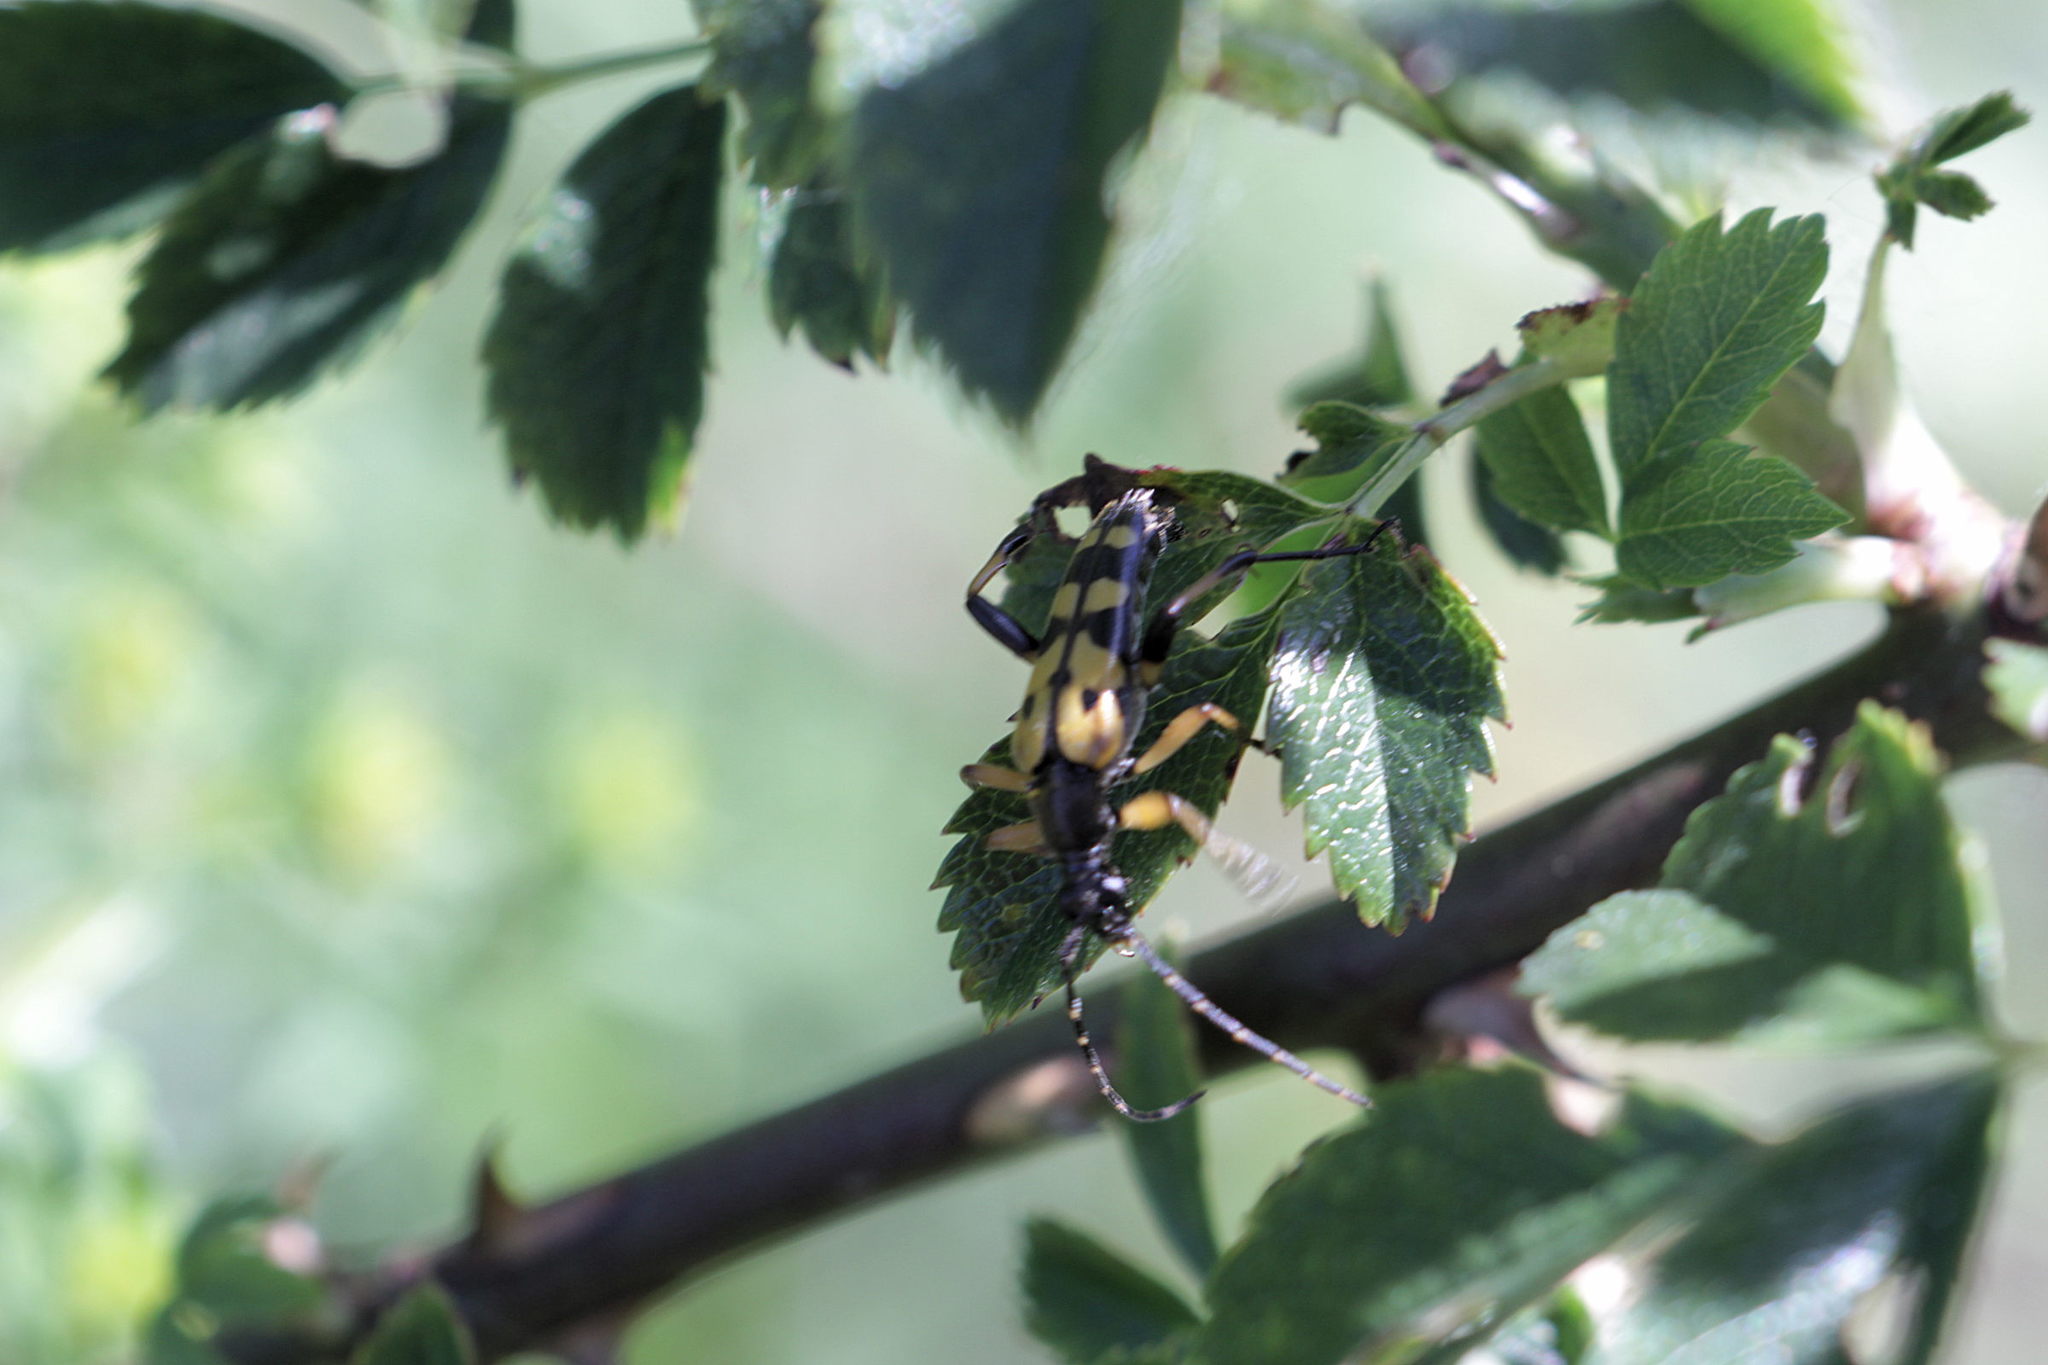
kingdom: Animalia
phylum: Arthropoda
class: Insecta
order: Coleoptera
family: Cerambycidae
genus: Rutpela
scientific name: Rutpela maculata
